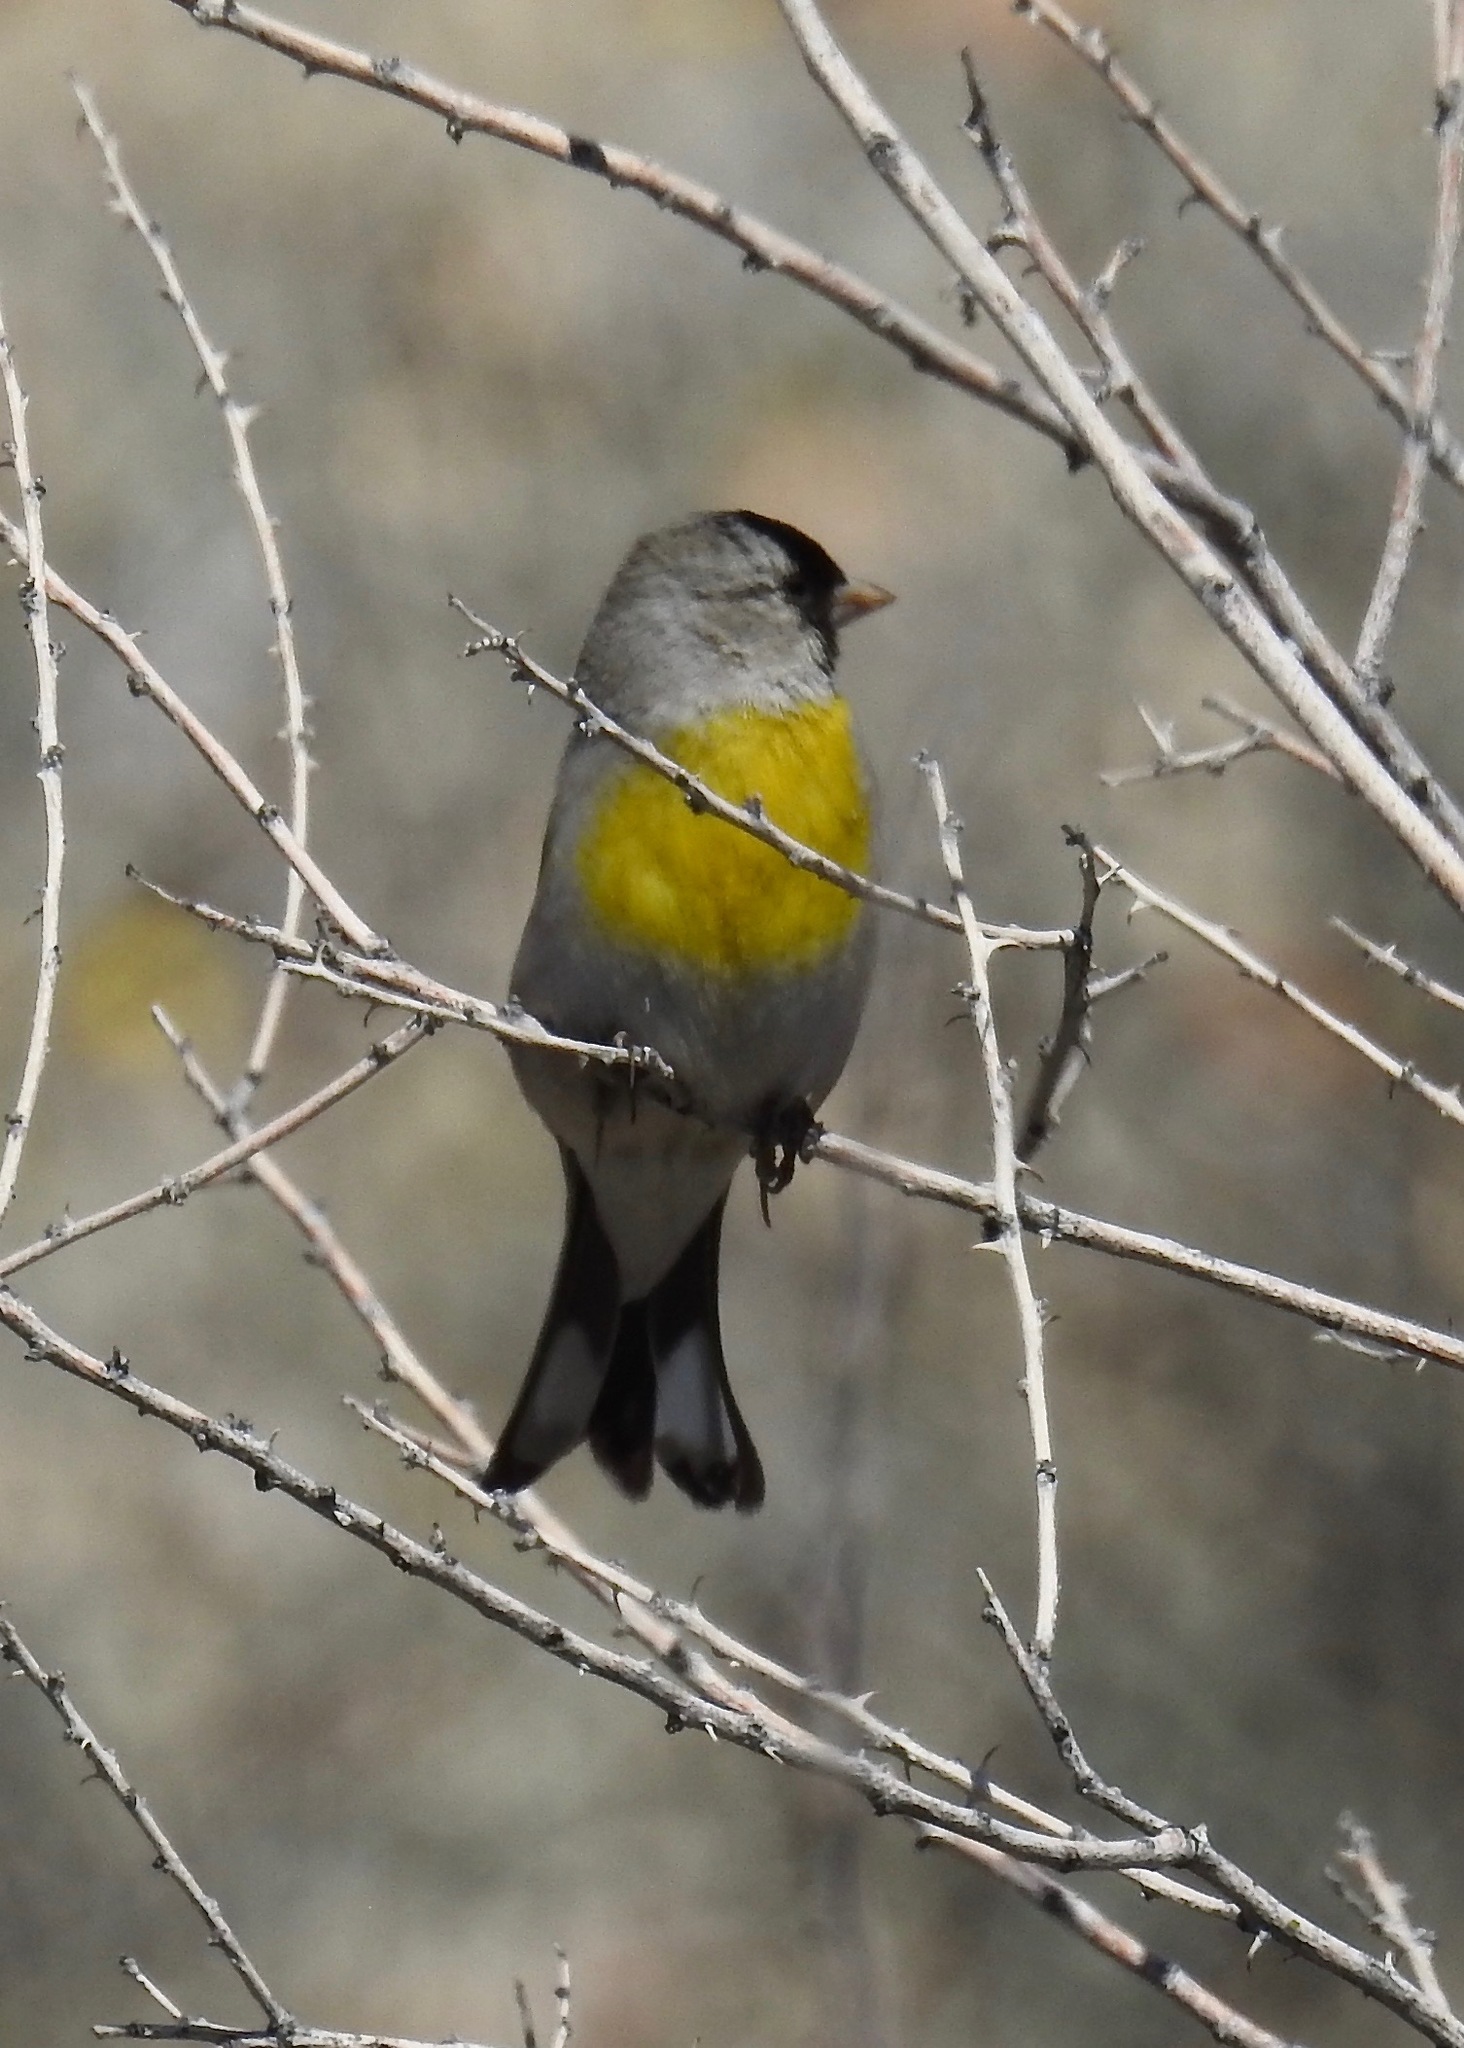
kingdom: Animalia
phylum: Chordata
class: Aves
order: Passeriformes
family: Fringillidae
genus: Spinus
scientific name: Spinus lawrencei
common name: Lawrence's goldfinch
